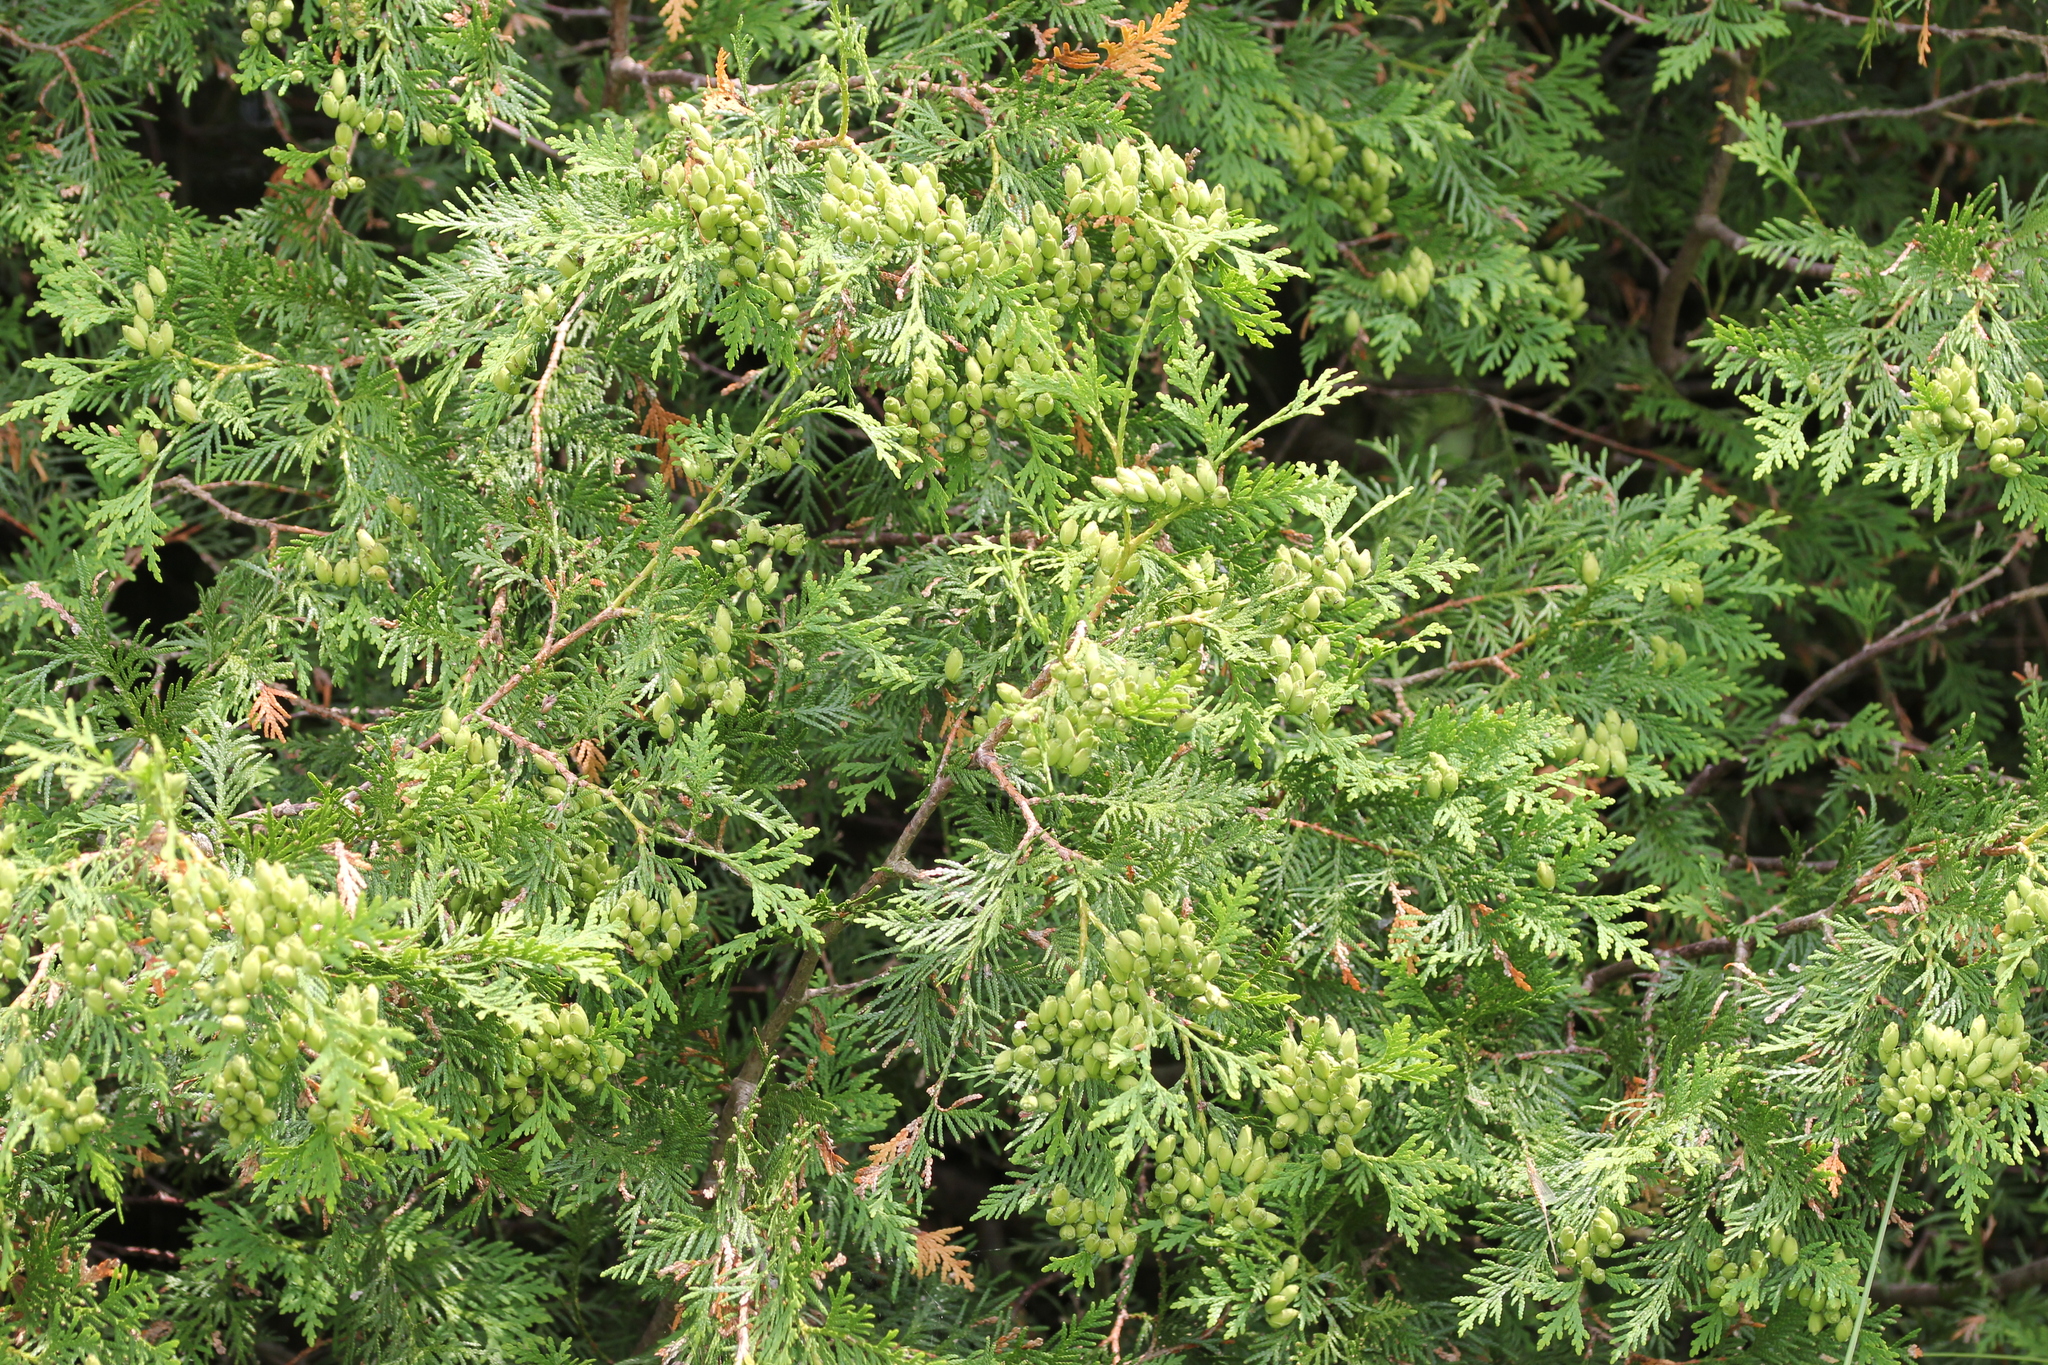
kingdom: Plantae
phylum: Tracheophyta
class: Pinopsida
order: Pinales
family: Cupressaceae
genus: Thuja
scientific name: Thuja occidentalis
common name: Northern white-cedar
